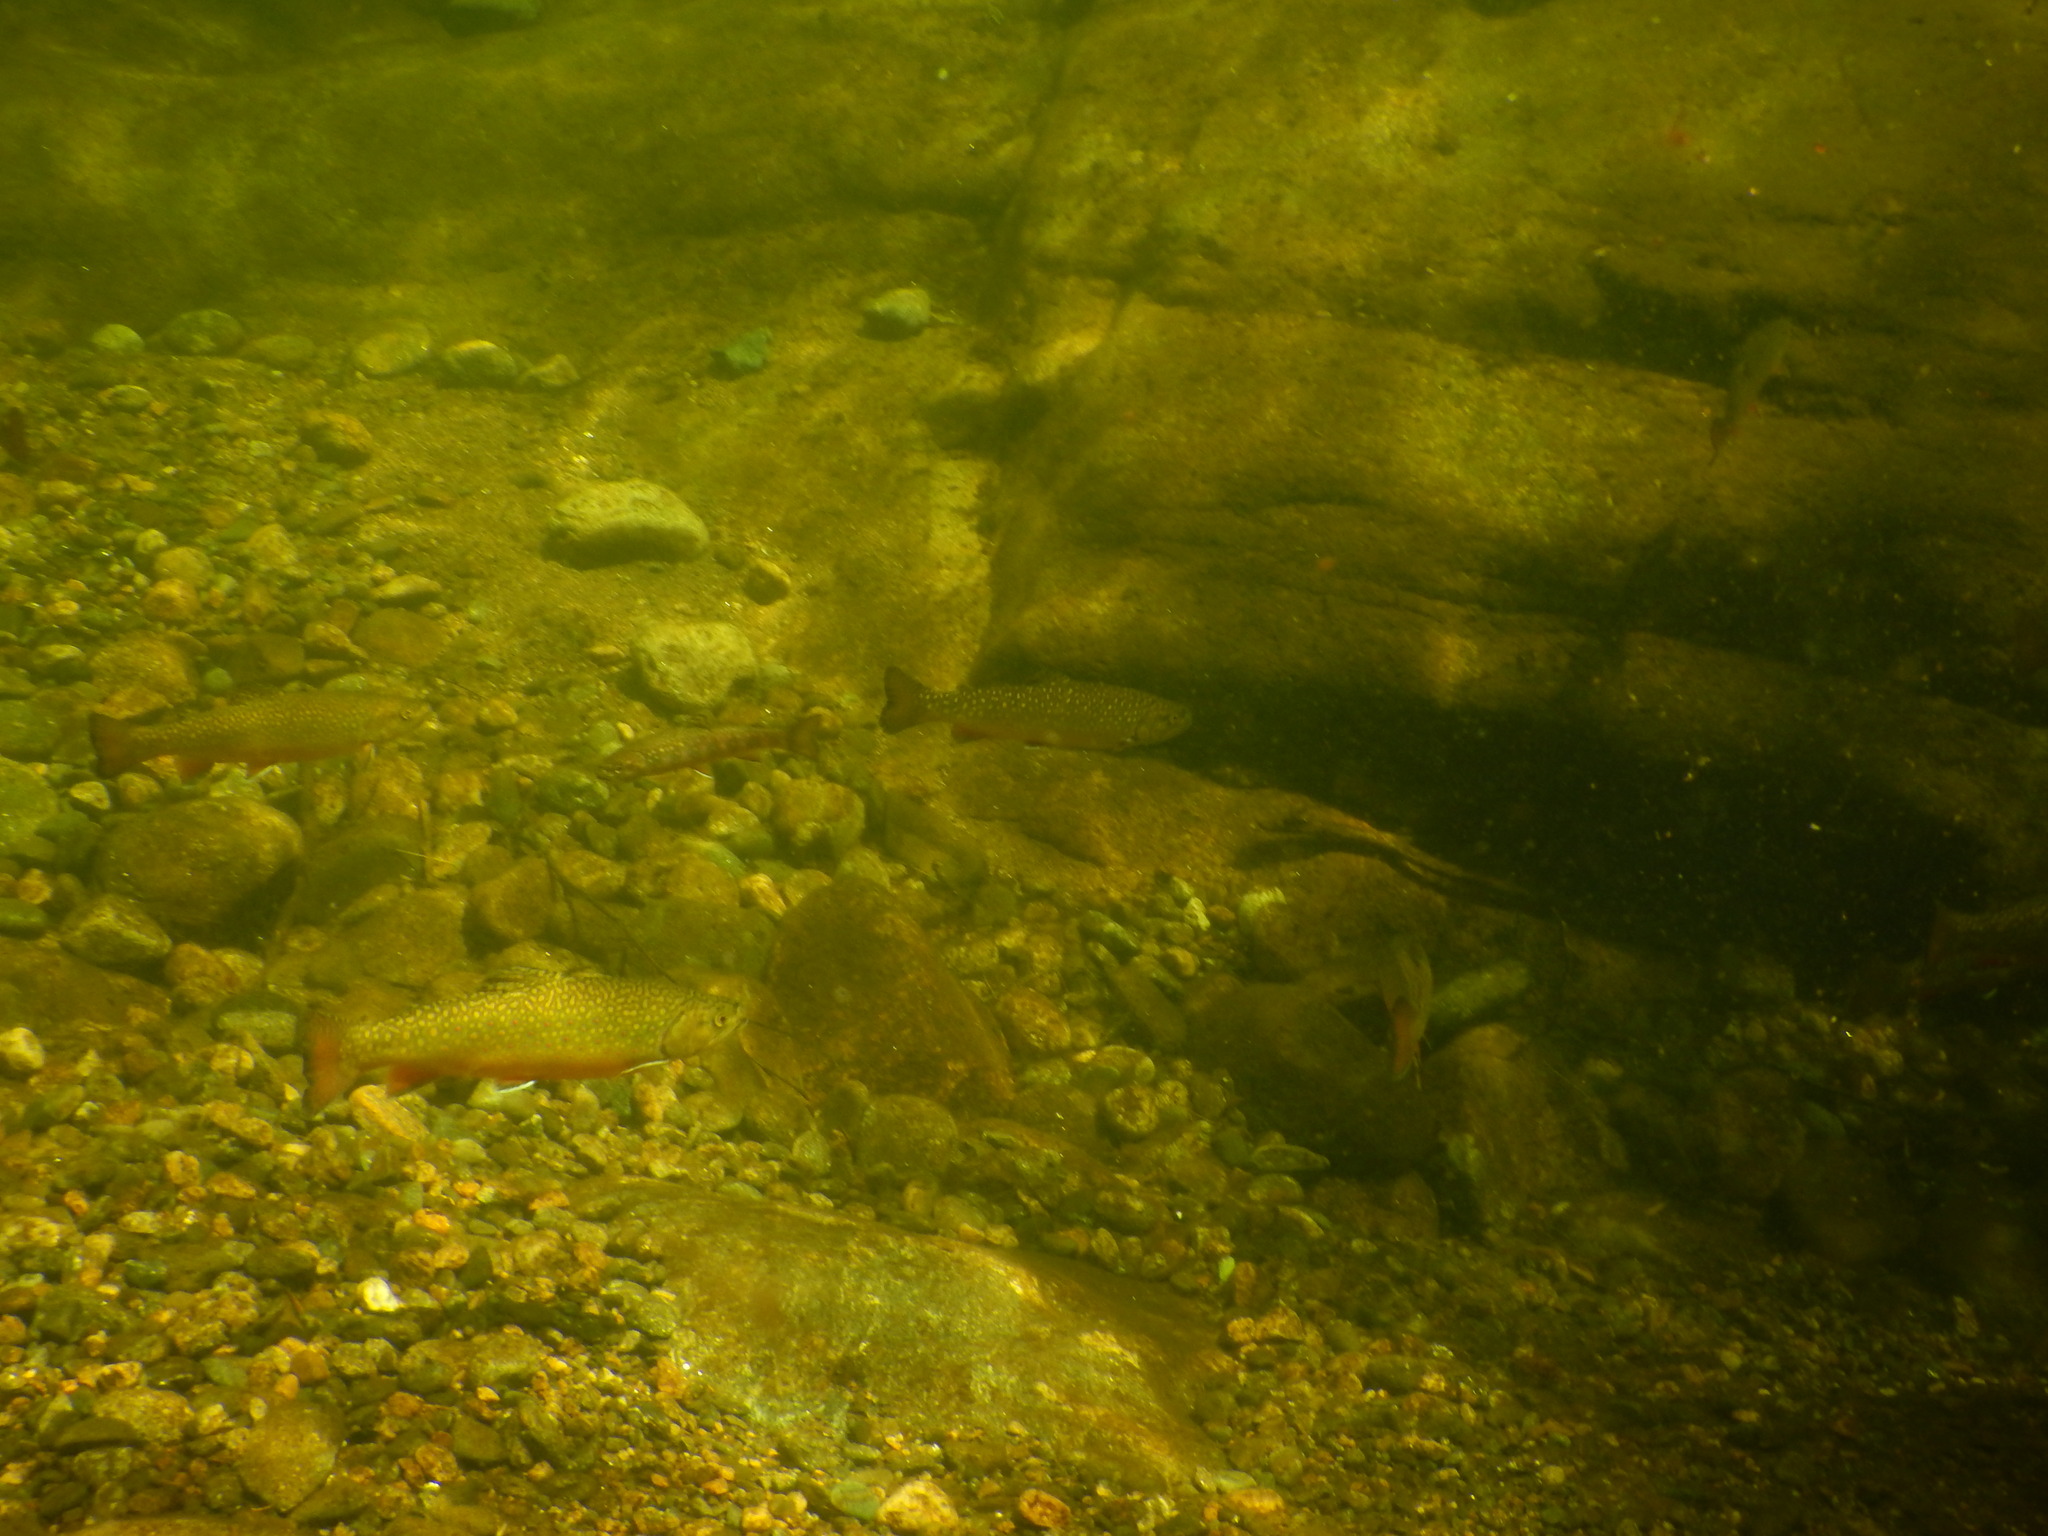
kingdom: Animalia
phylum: Chordata
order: Salmoniformes
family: Salmonidae
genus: Salvelinus
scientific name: Salvelinus fontinalis
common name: Brook trout
